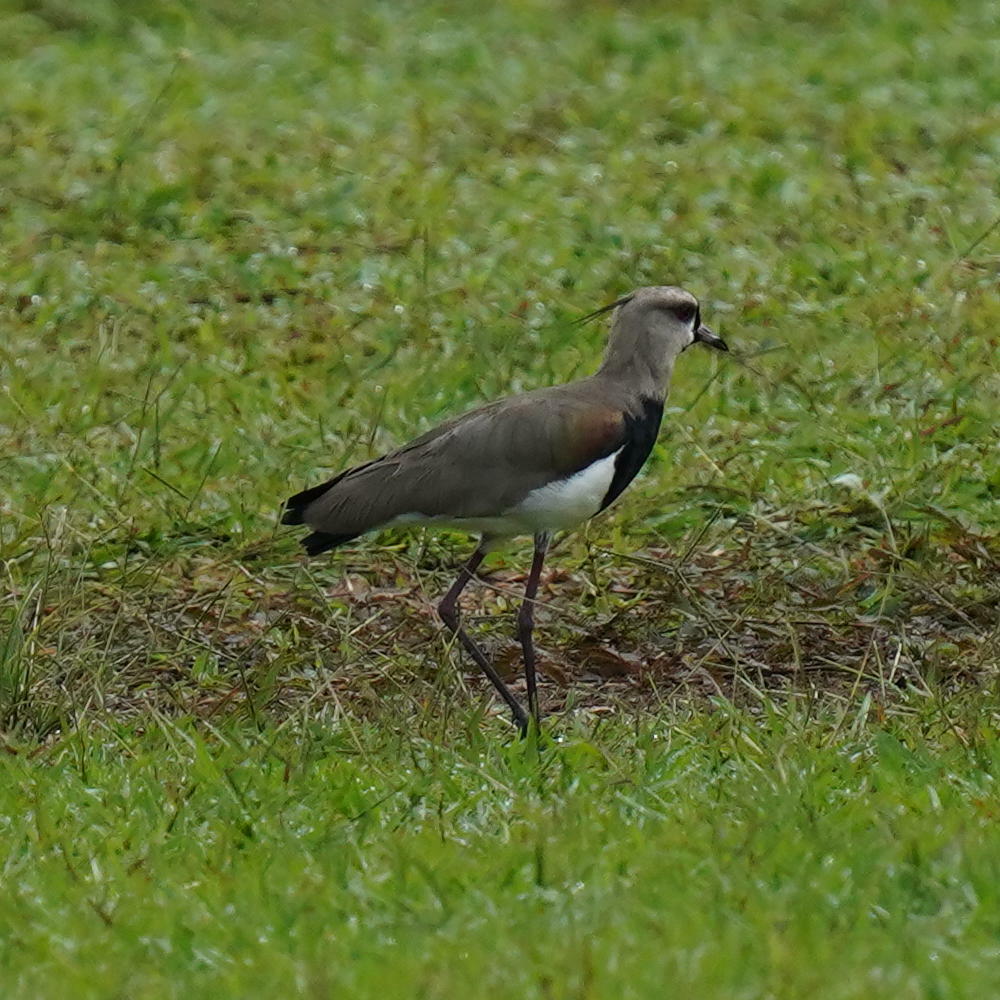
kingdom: Animalia
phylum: Chordata
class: Aves
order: Charadriiformes
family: Charadriidae
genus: Vanellus
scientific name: Vanellus chilensis
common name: Southern lapwing
